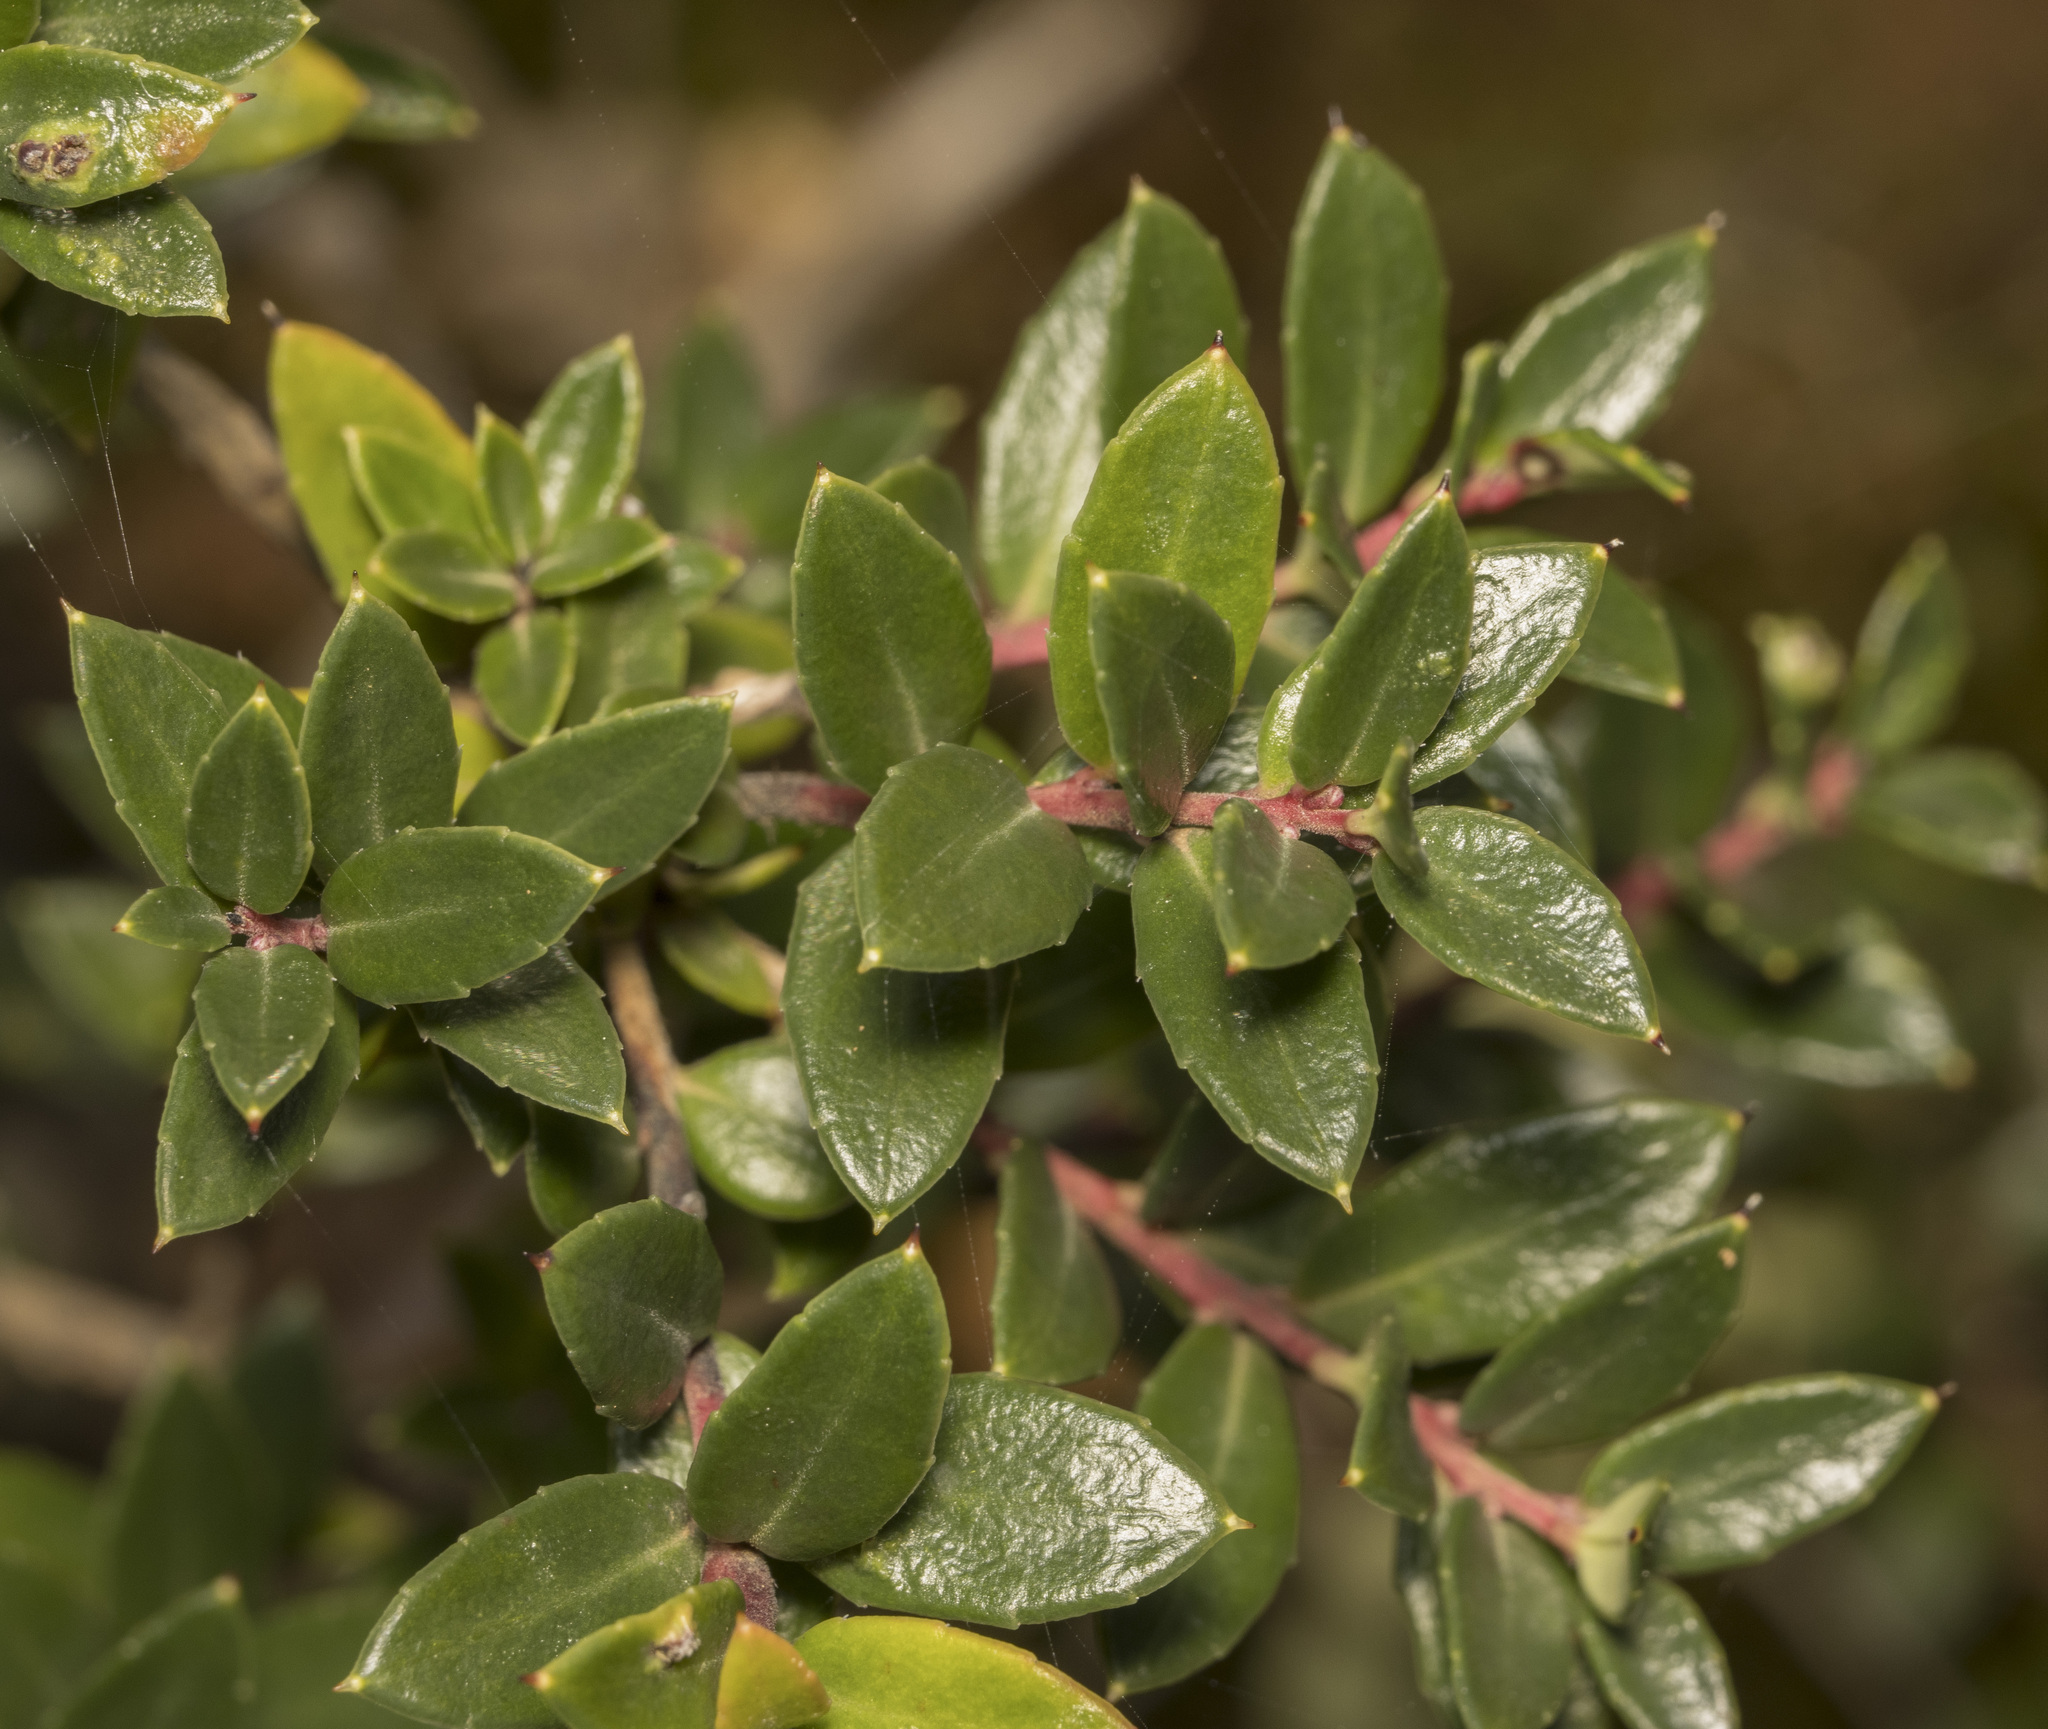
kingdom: Plantae
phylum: Tracheophyta
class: Magnoliopsida
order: Ericales
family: Ericaceae
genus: Gaultheria
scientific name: Gaultheria mucronata
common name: Prickly heath
